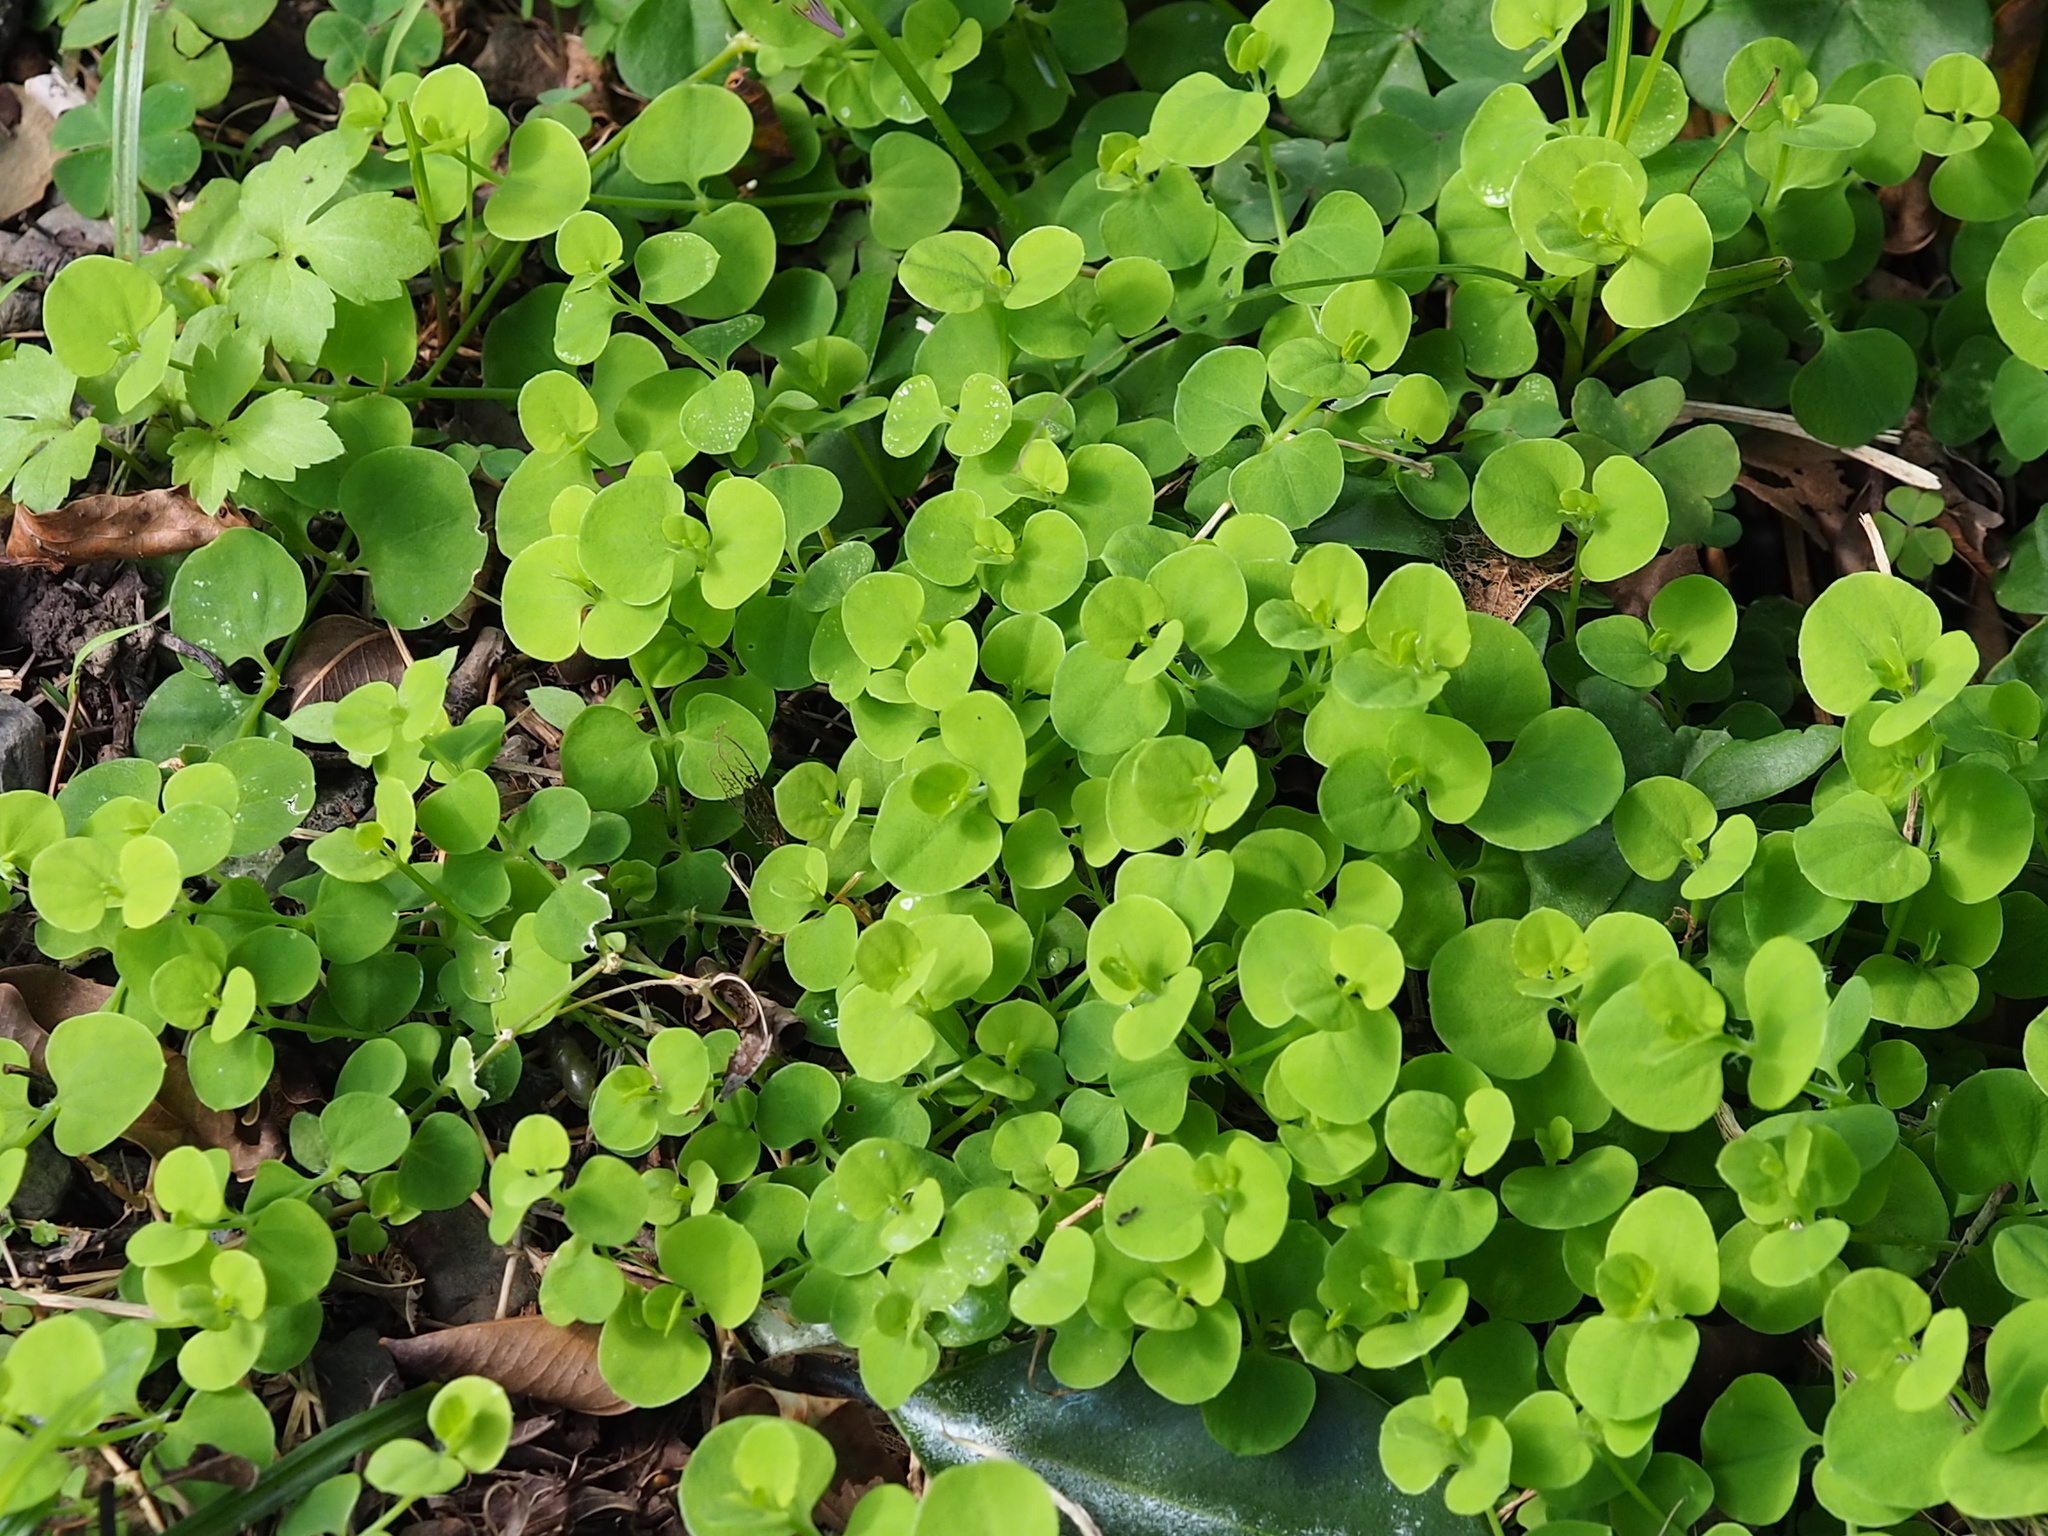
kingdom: Plantae
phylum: Tracheophyta
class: Magnoliopsida
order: Caryophyllales
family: Caryophyllaceae
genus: Drymaria
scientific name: Drymaria cordata
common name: Whitesnow
